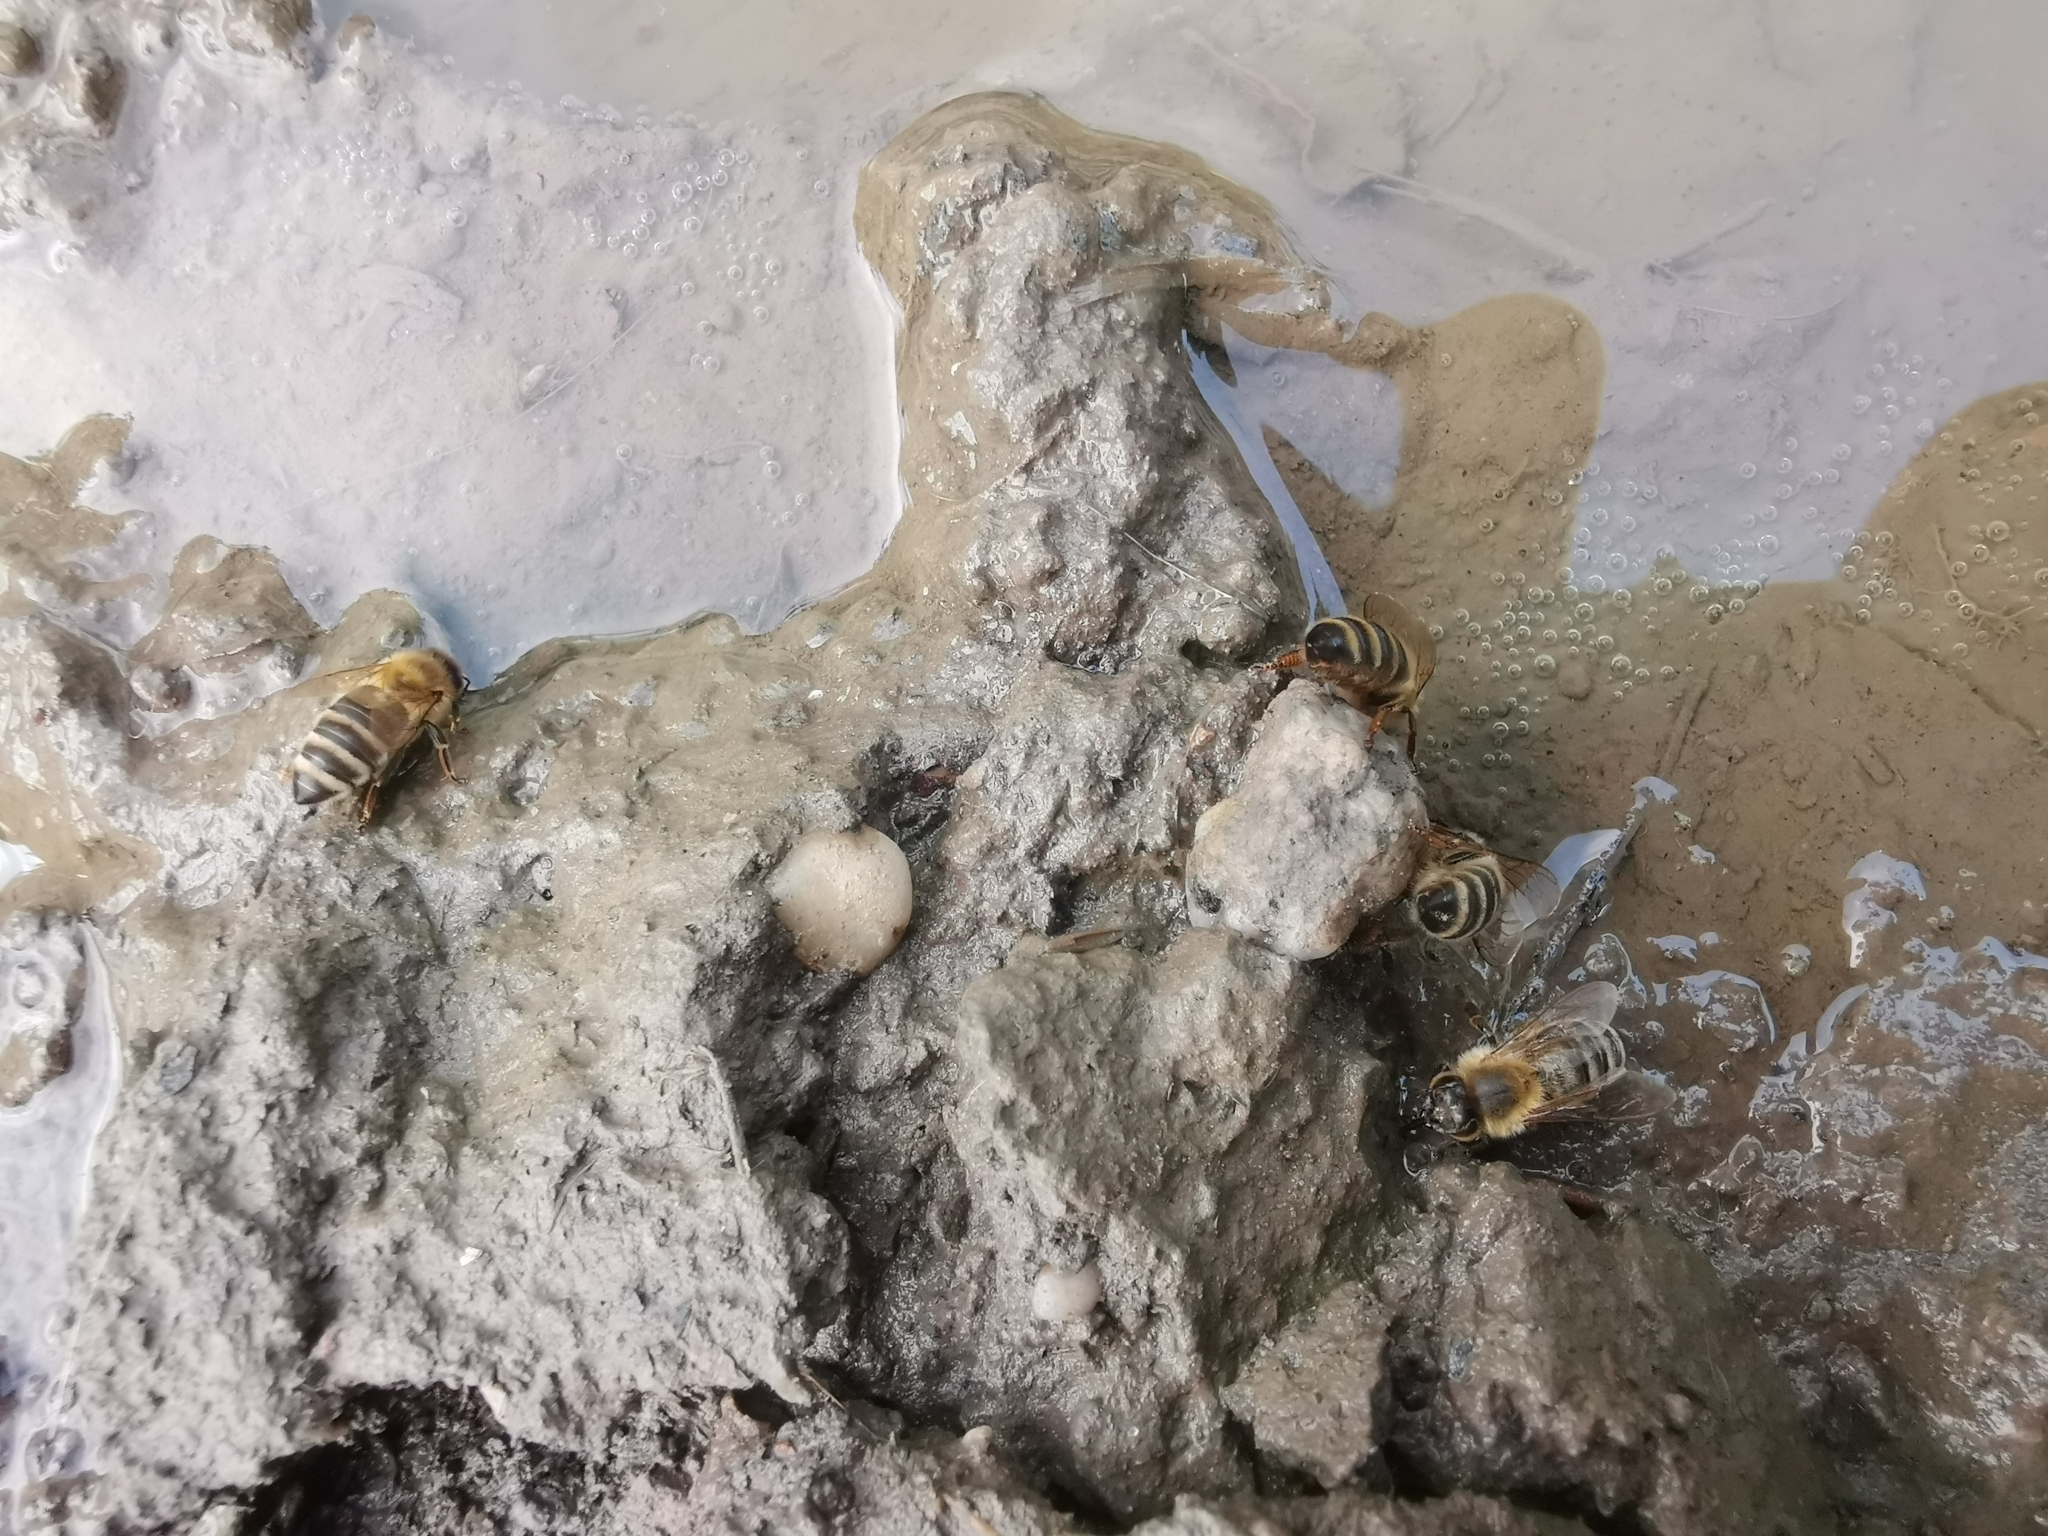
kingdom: Animalia
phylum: Arthropoda
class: Insecta
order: Hymenoptera
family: Apidae
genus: Apis
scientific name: Apis mellifera
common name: Honey bee
